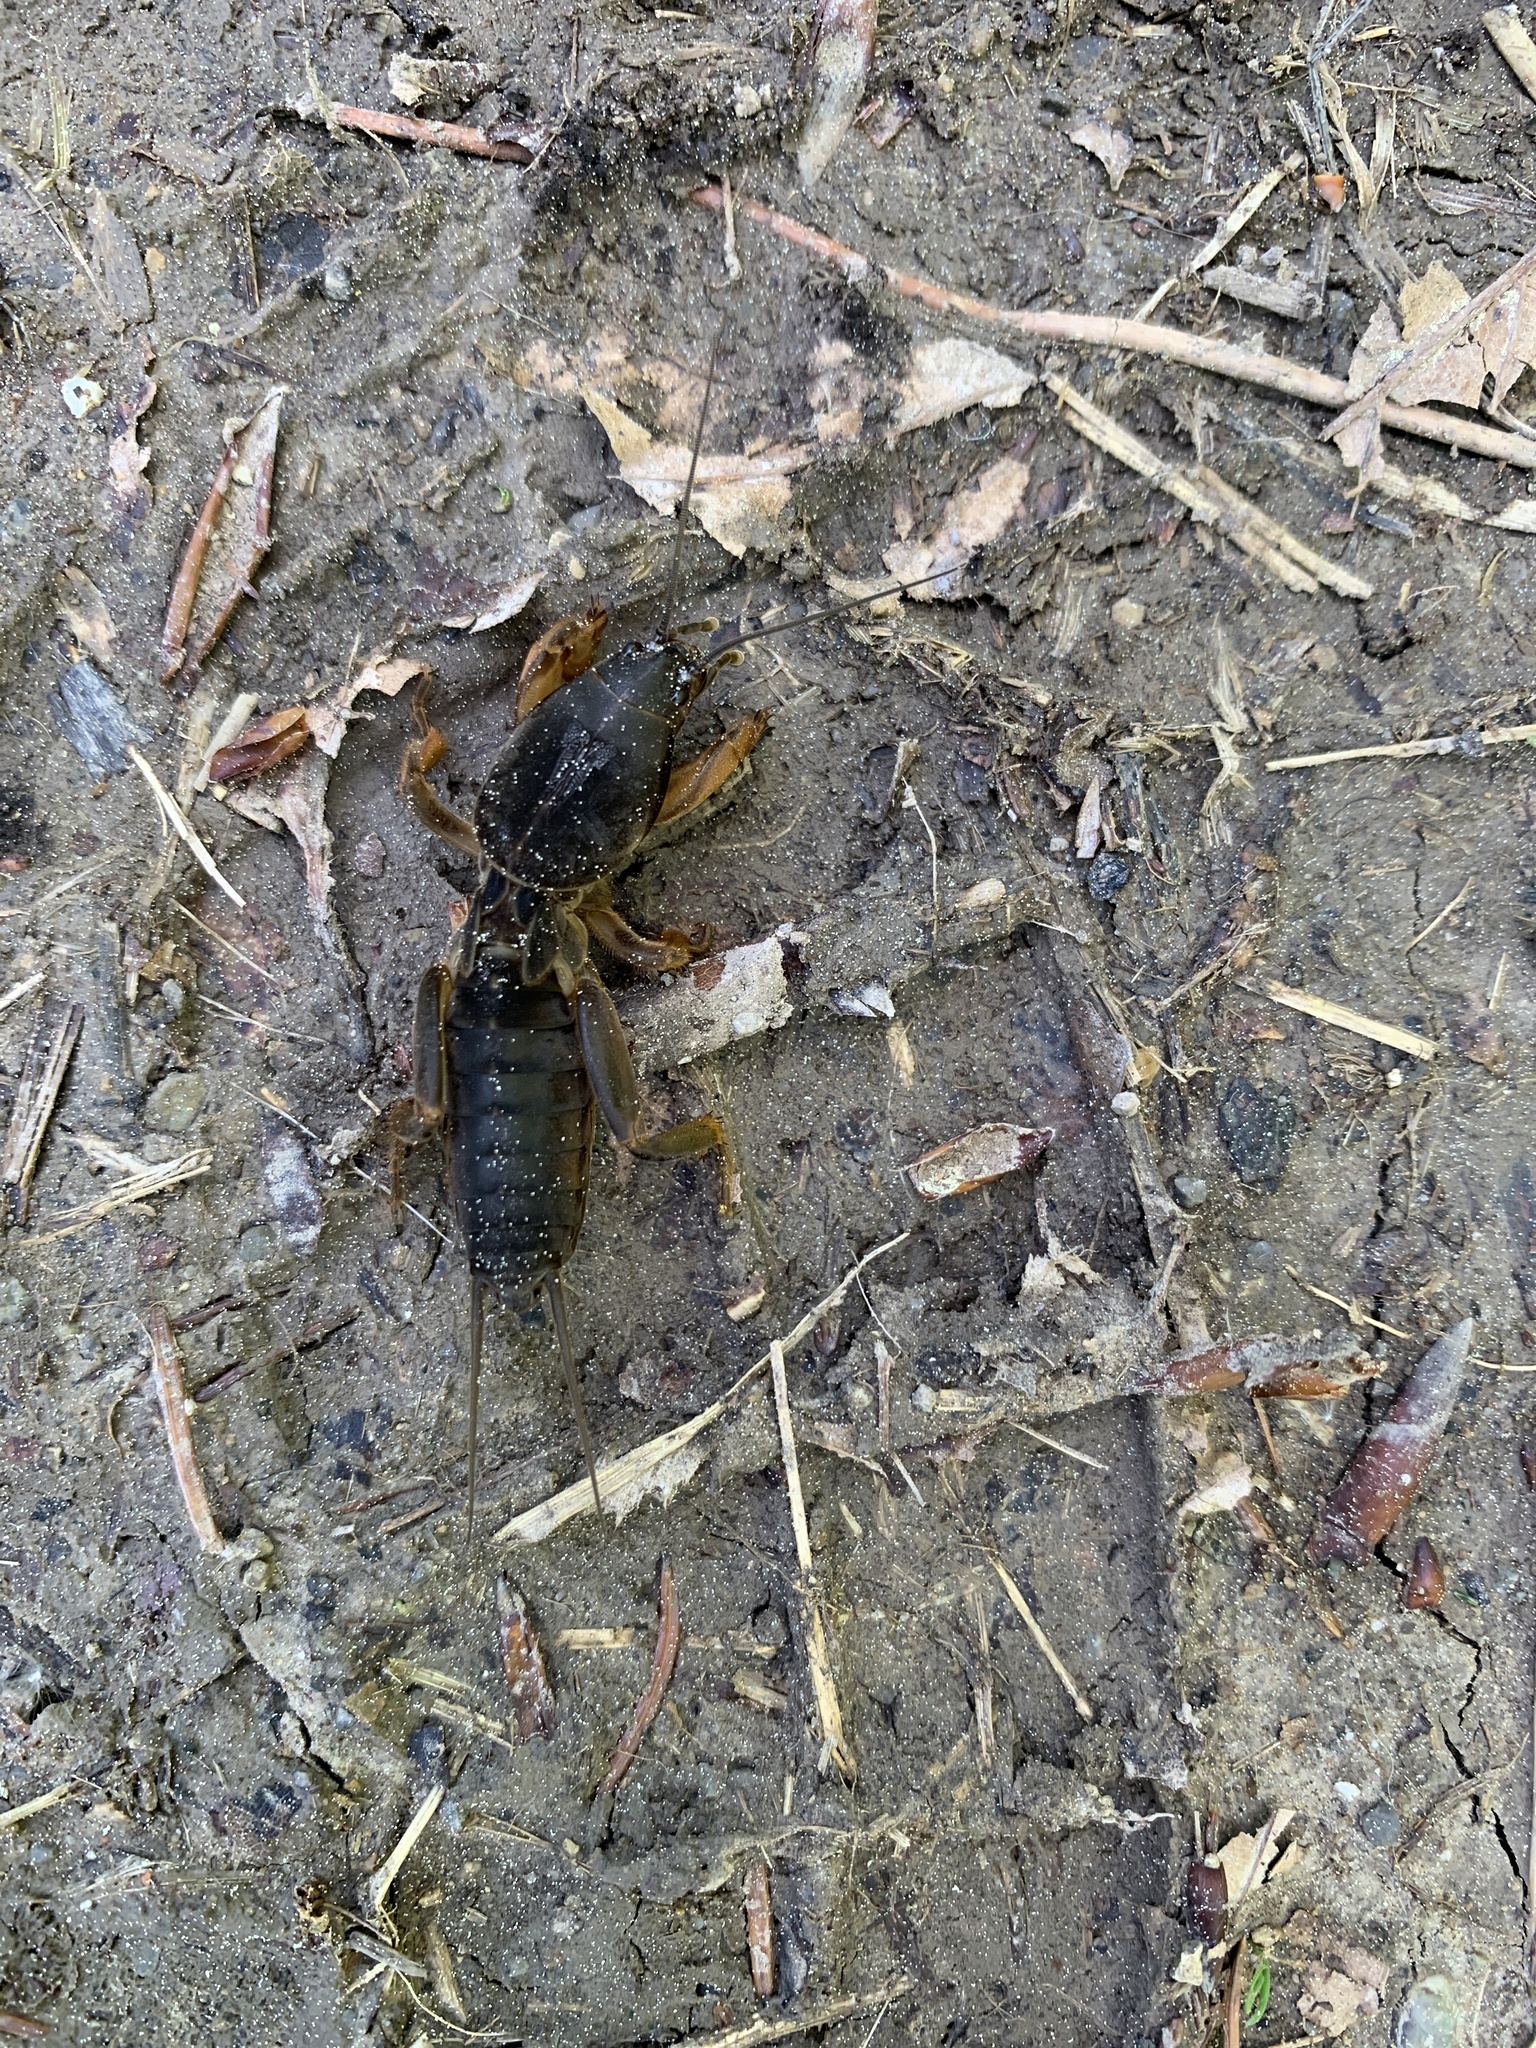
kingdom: Animalia
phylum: Arthropoda
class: Insecta
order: Orthoptera
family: Gryllotalpidae
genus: Gryllotalpa
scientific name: Gryllotalpa gryllotalpa
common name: European mole cricket
